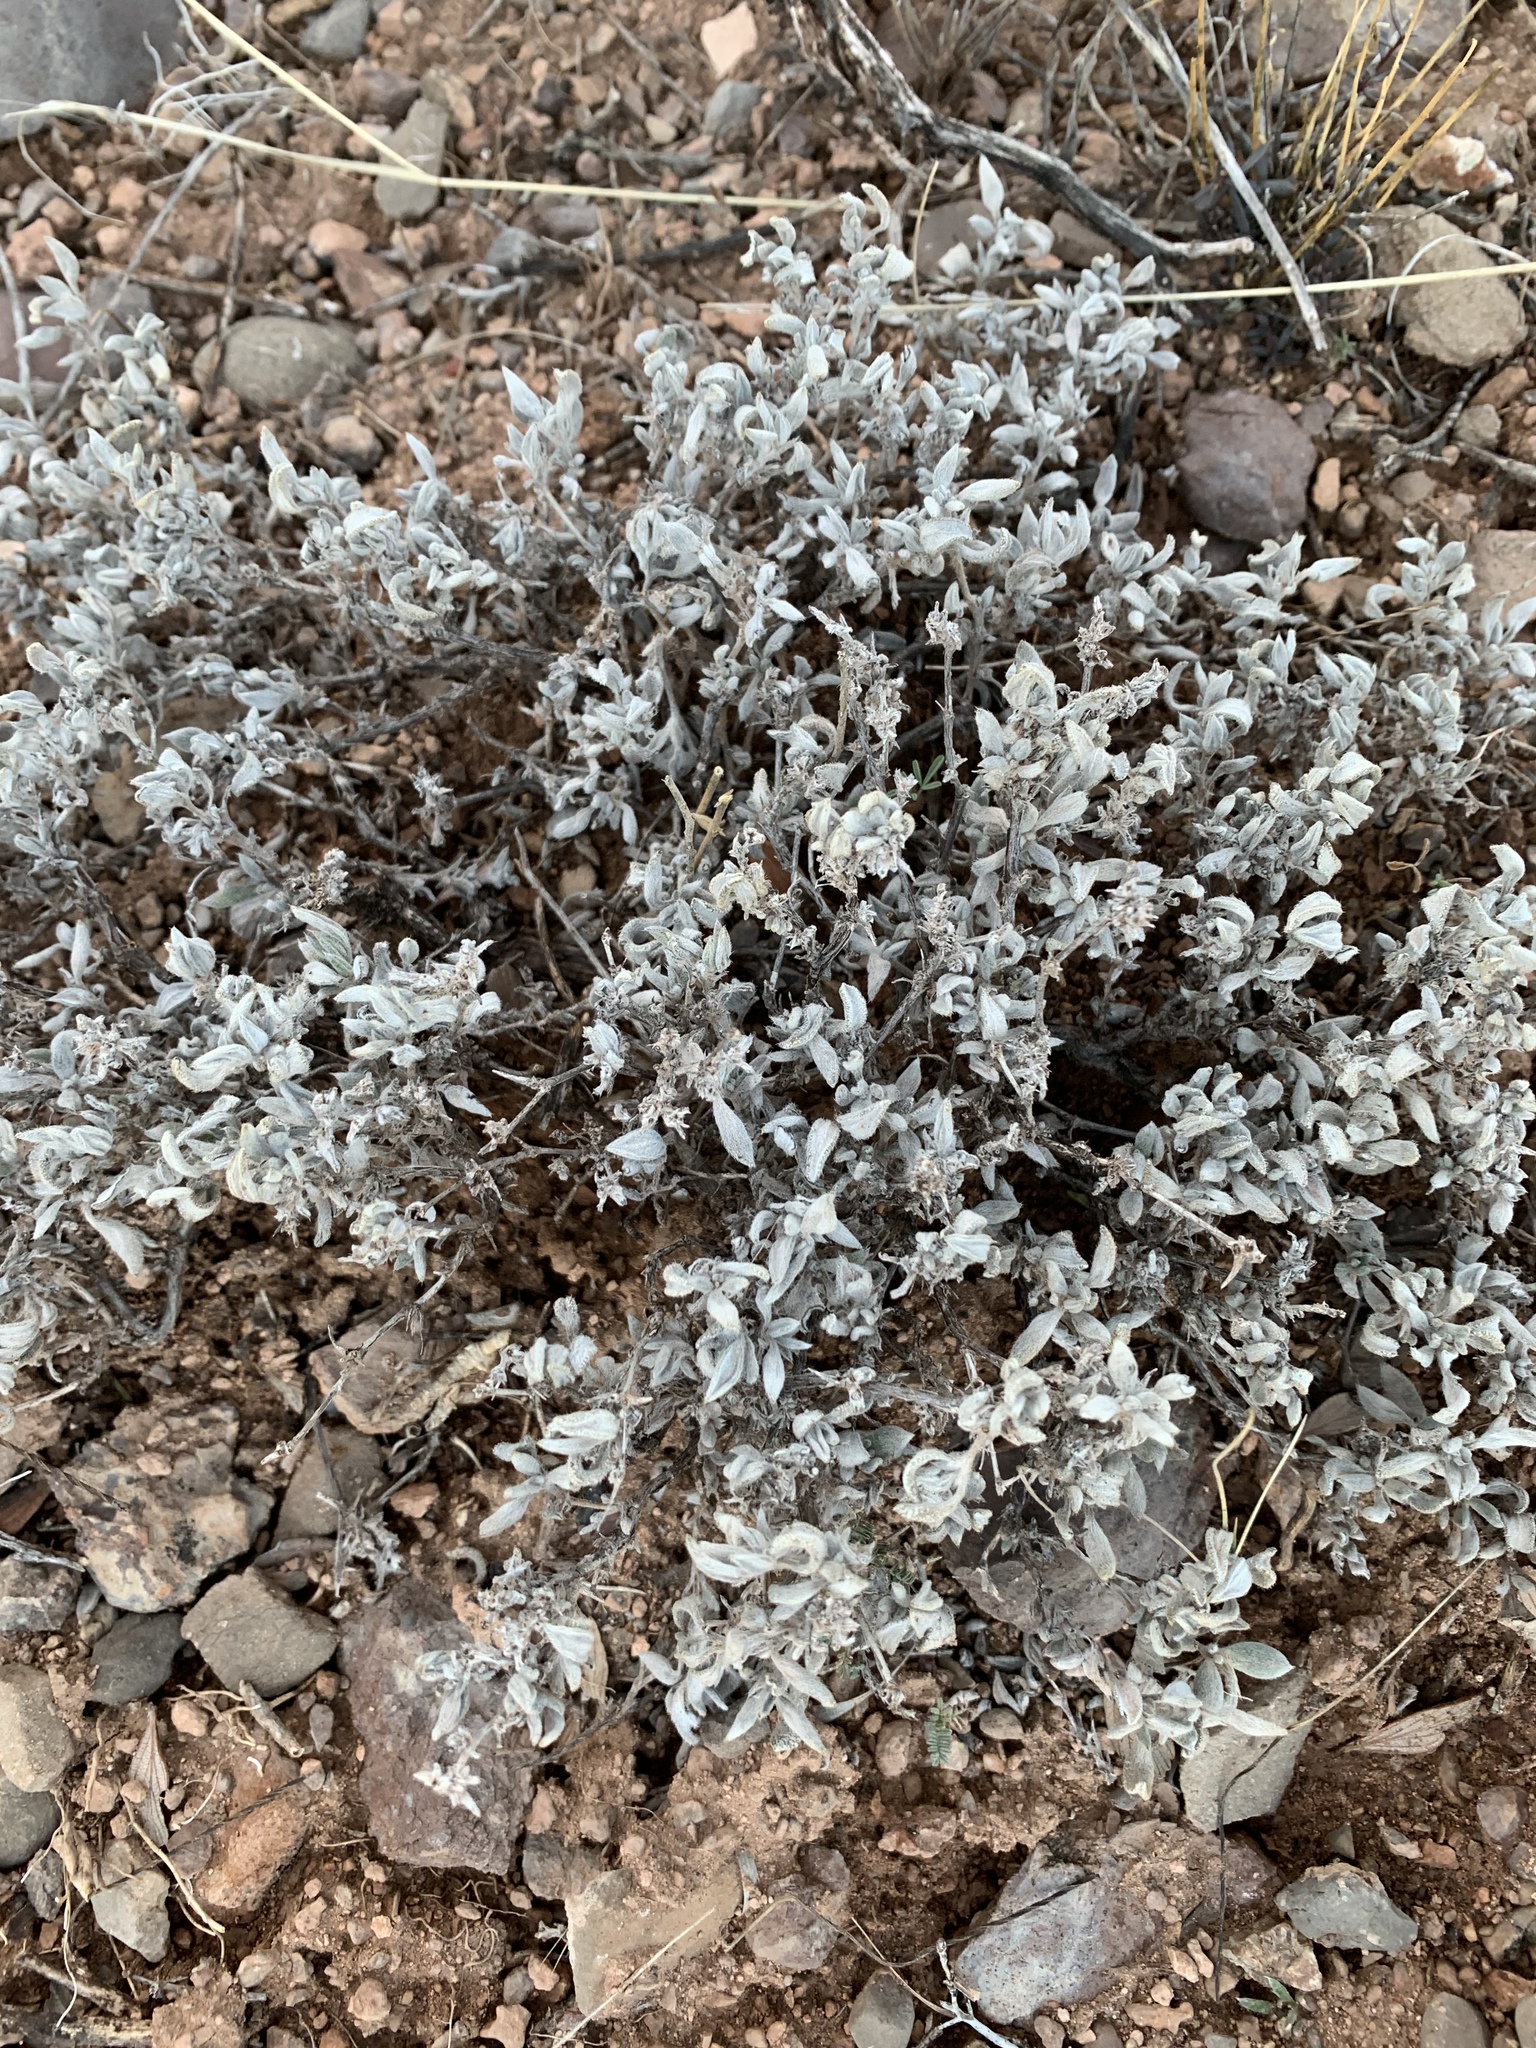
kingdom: Plantae
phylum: Tracheophyta
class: Magnoliopsida
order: Boraginales
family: Ehretiaceae
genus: Tiquilia
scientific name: Tiquilia canescens
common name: Hairy tiquilia
